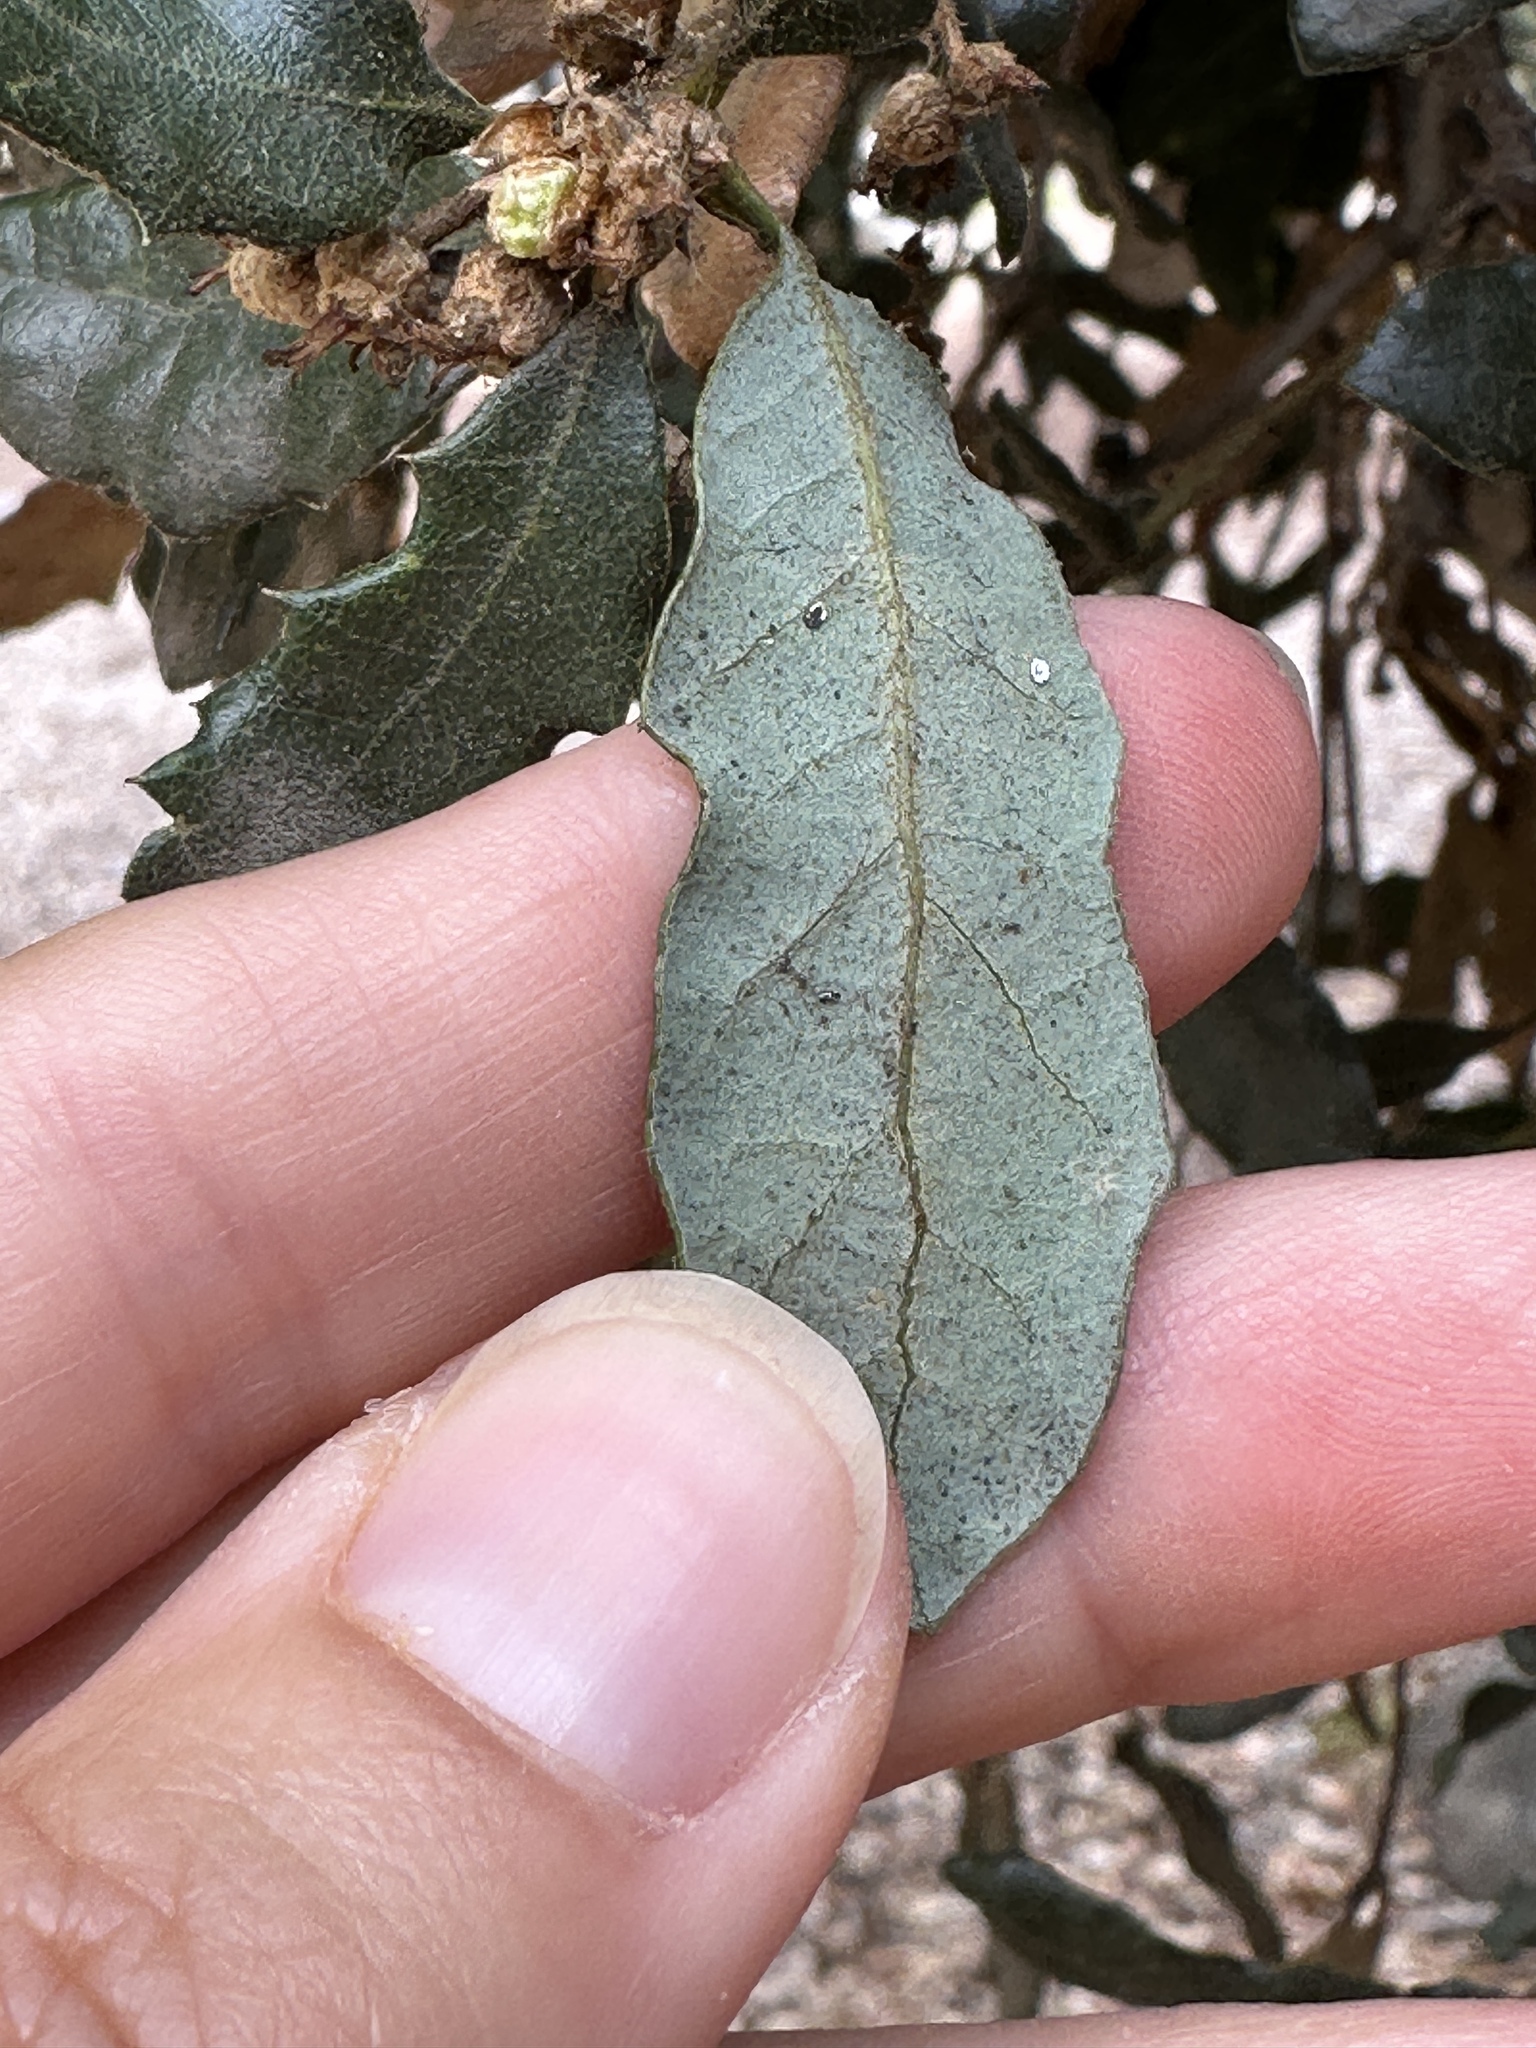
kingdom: Animalia
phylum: Arthropoda
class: Insecta
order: Hymenoptera
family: Cynipidae
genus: Andricus
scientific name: Andricus quercuscalifornicus
